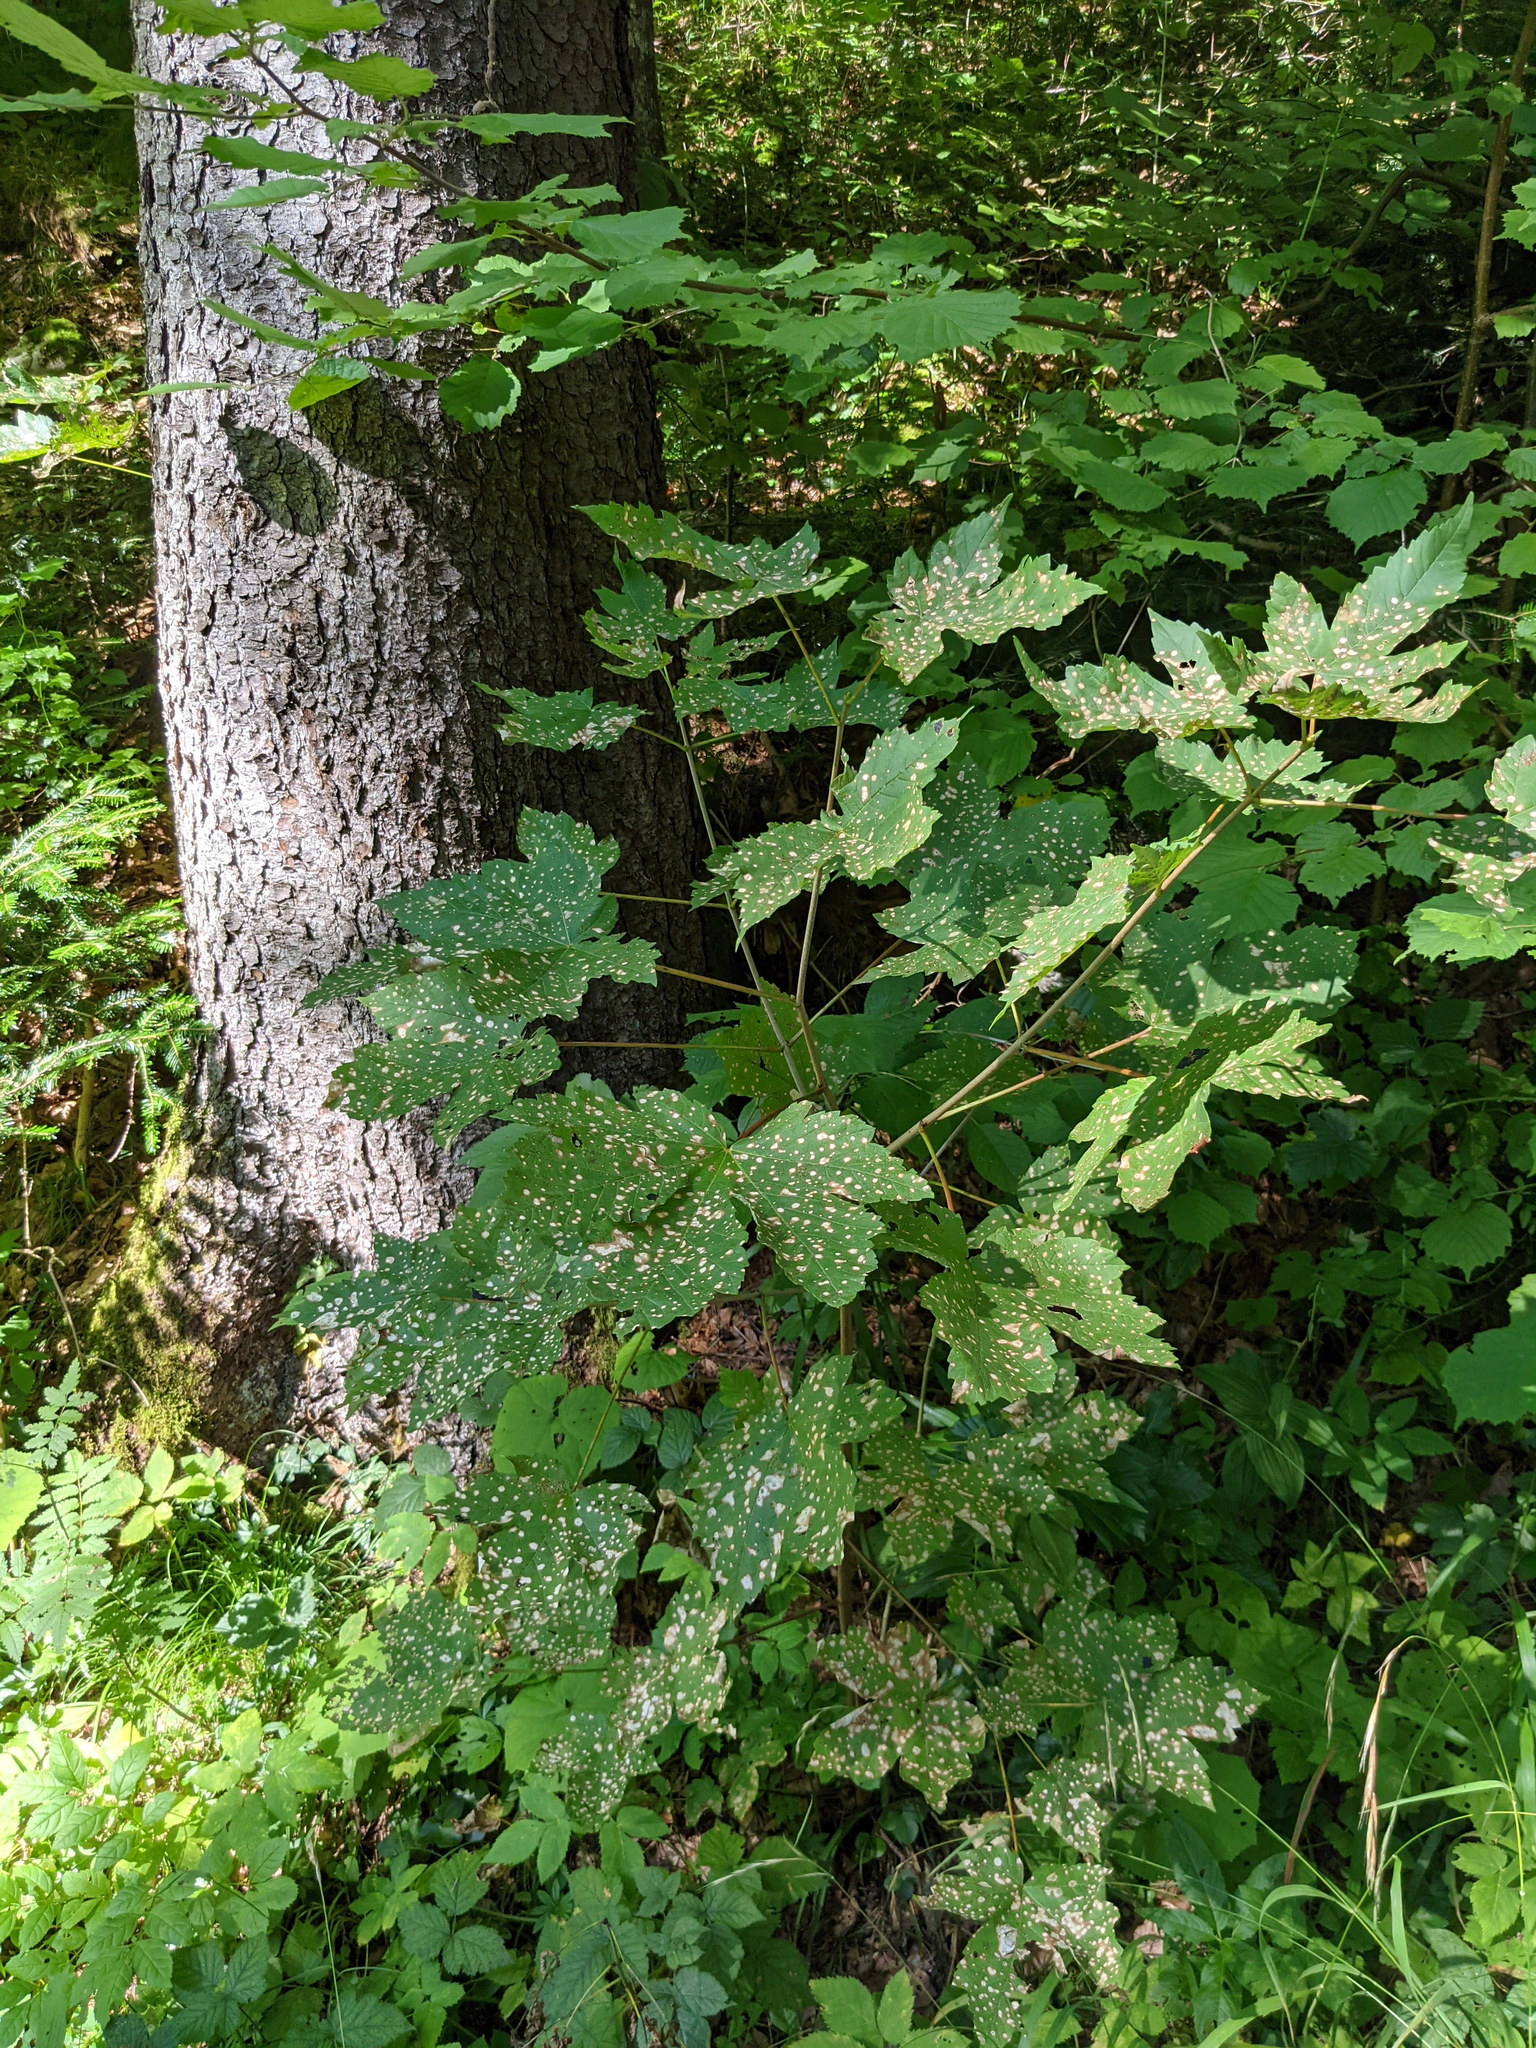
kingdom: Plantae
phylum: Tracheophyta
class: Magnoliopsida
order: Sapindales
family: Sapindaceae
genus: Acer
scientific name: Acer pseudoplatanus
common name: Sycamore
